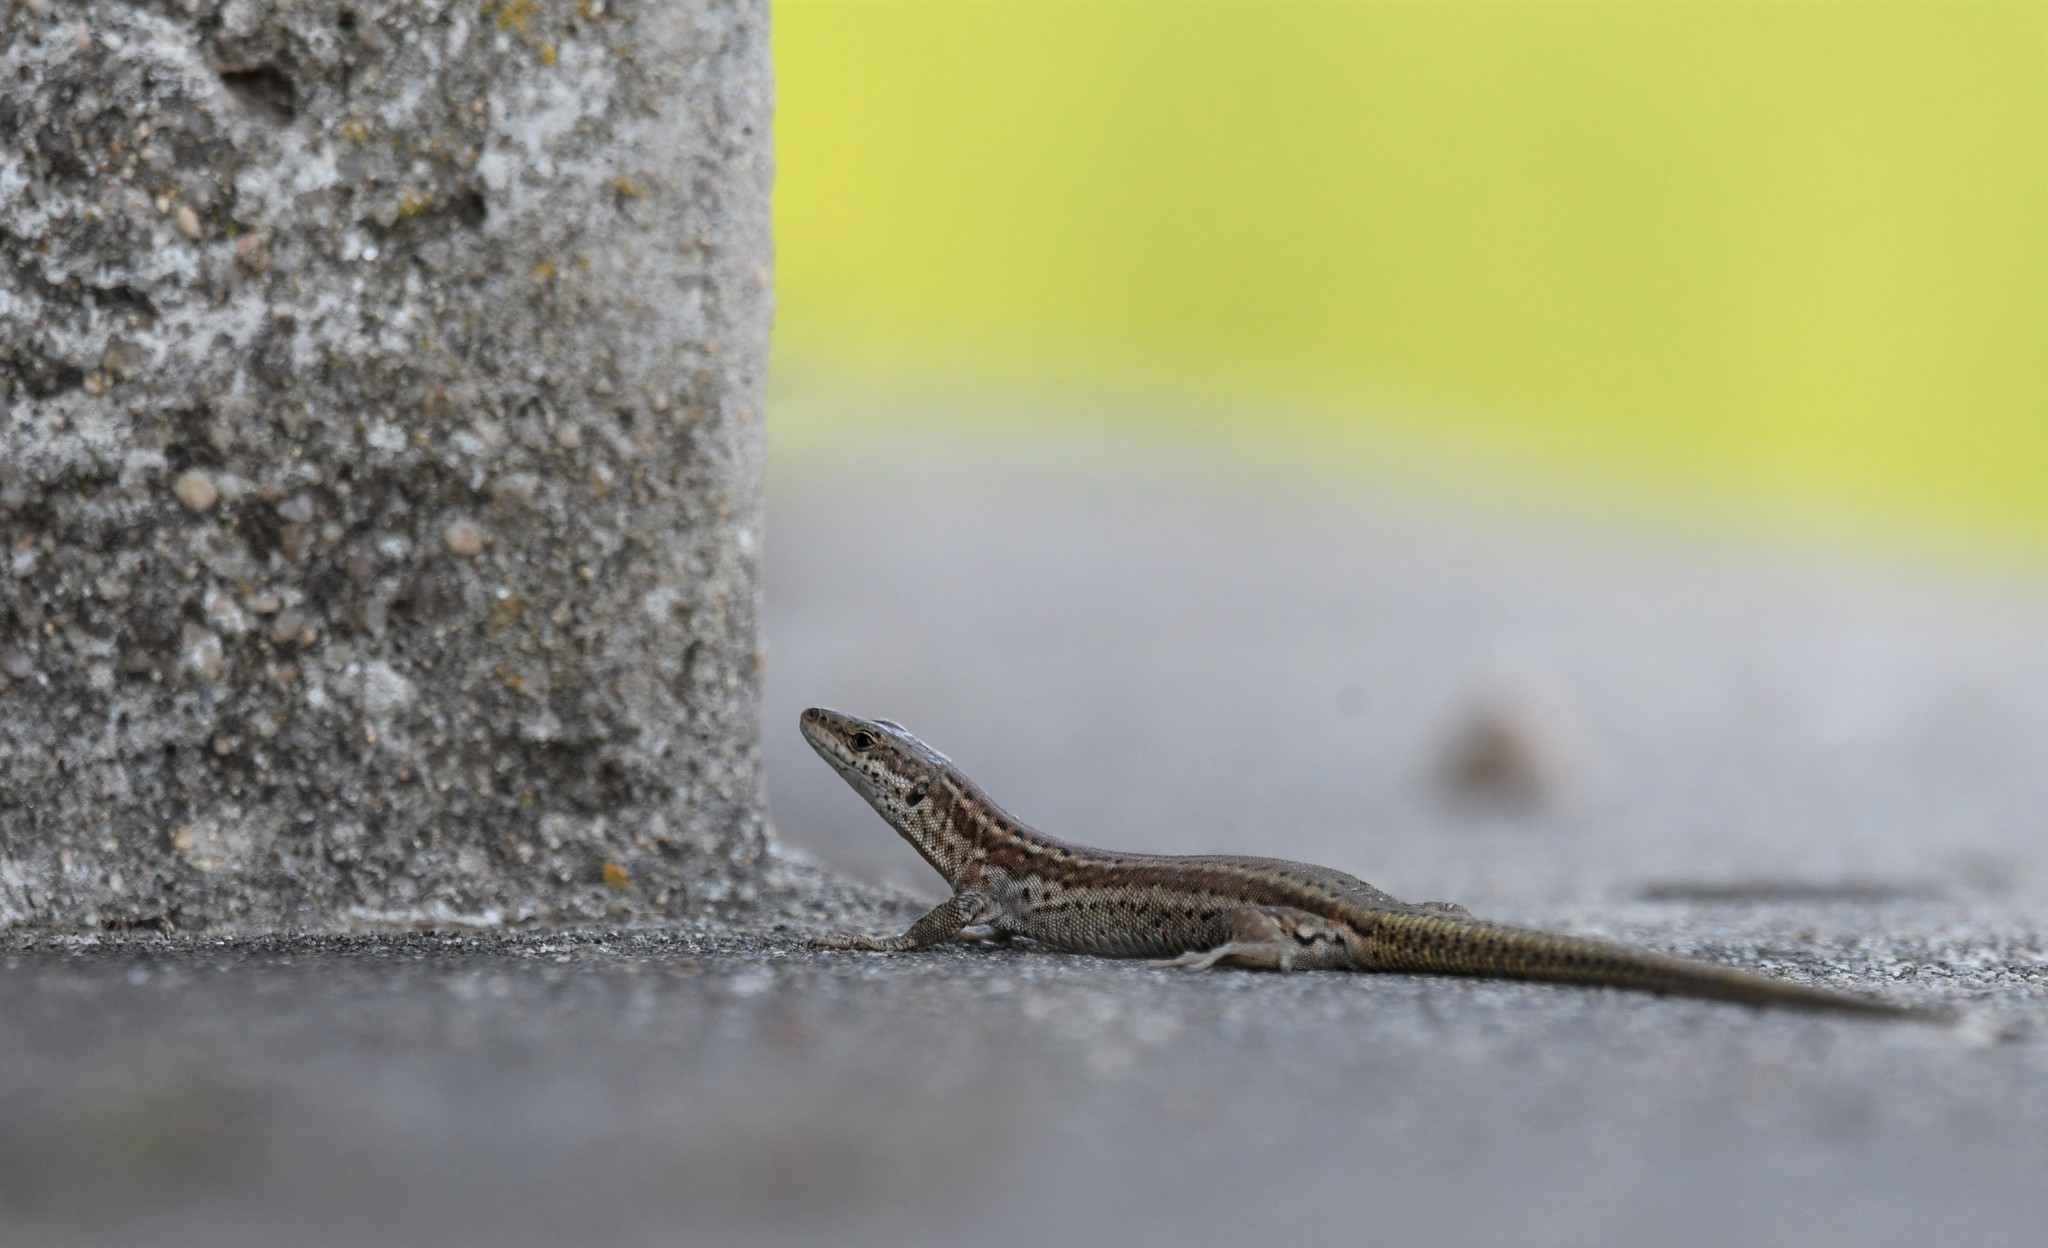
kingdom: Animalia
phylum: Chordata
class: Squamata
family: Lacertidae
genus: Podarcis
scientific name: Podarcis virescens
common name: Geniez’s wall lizard
